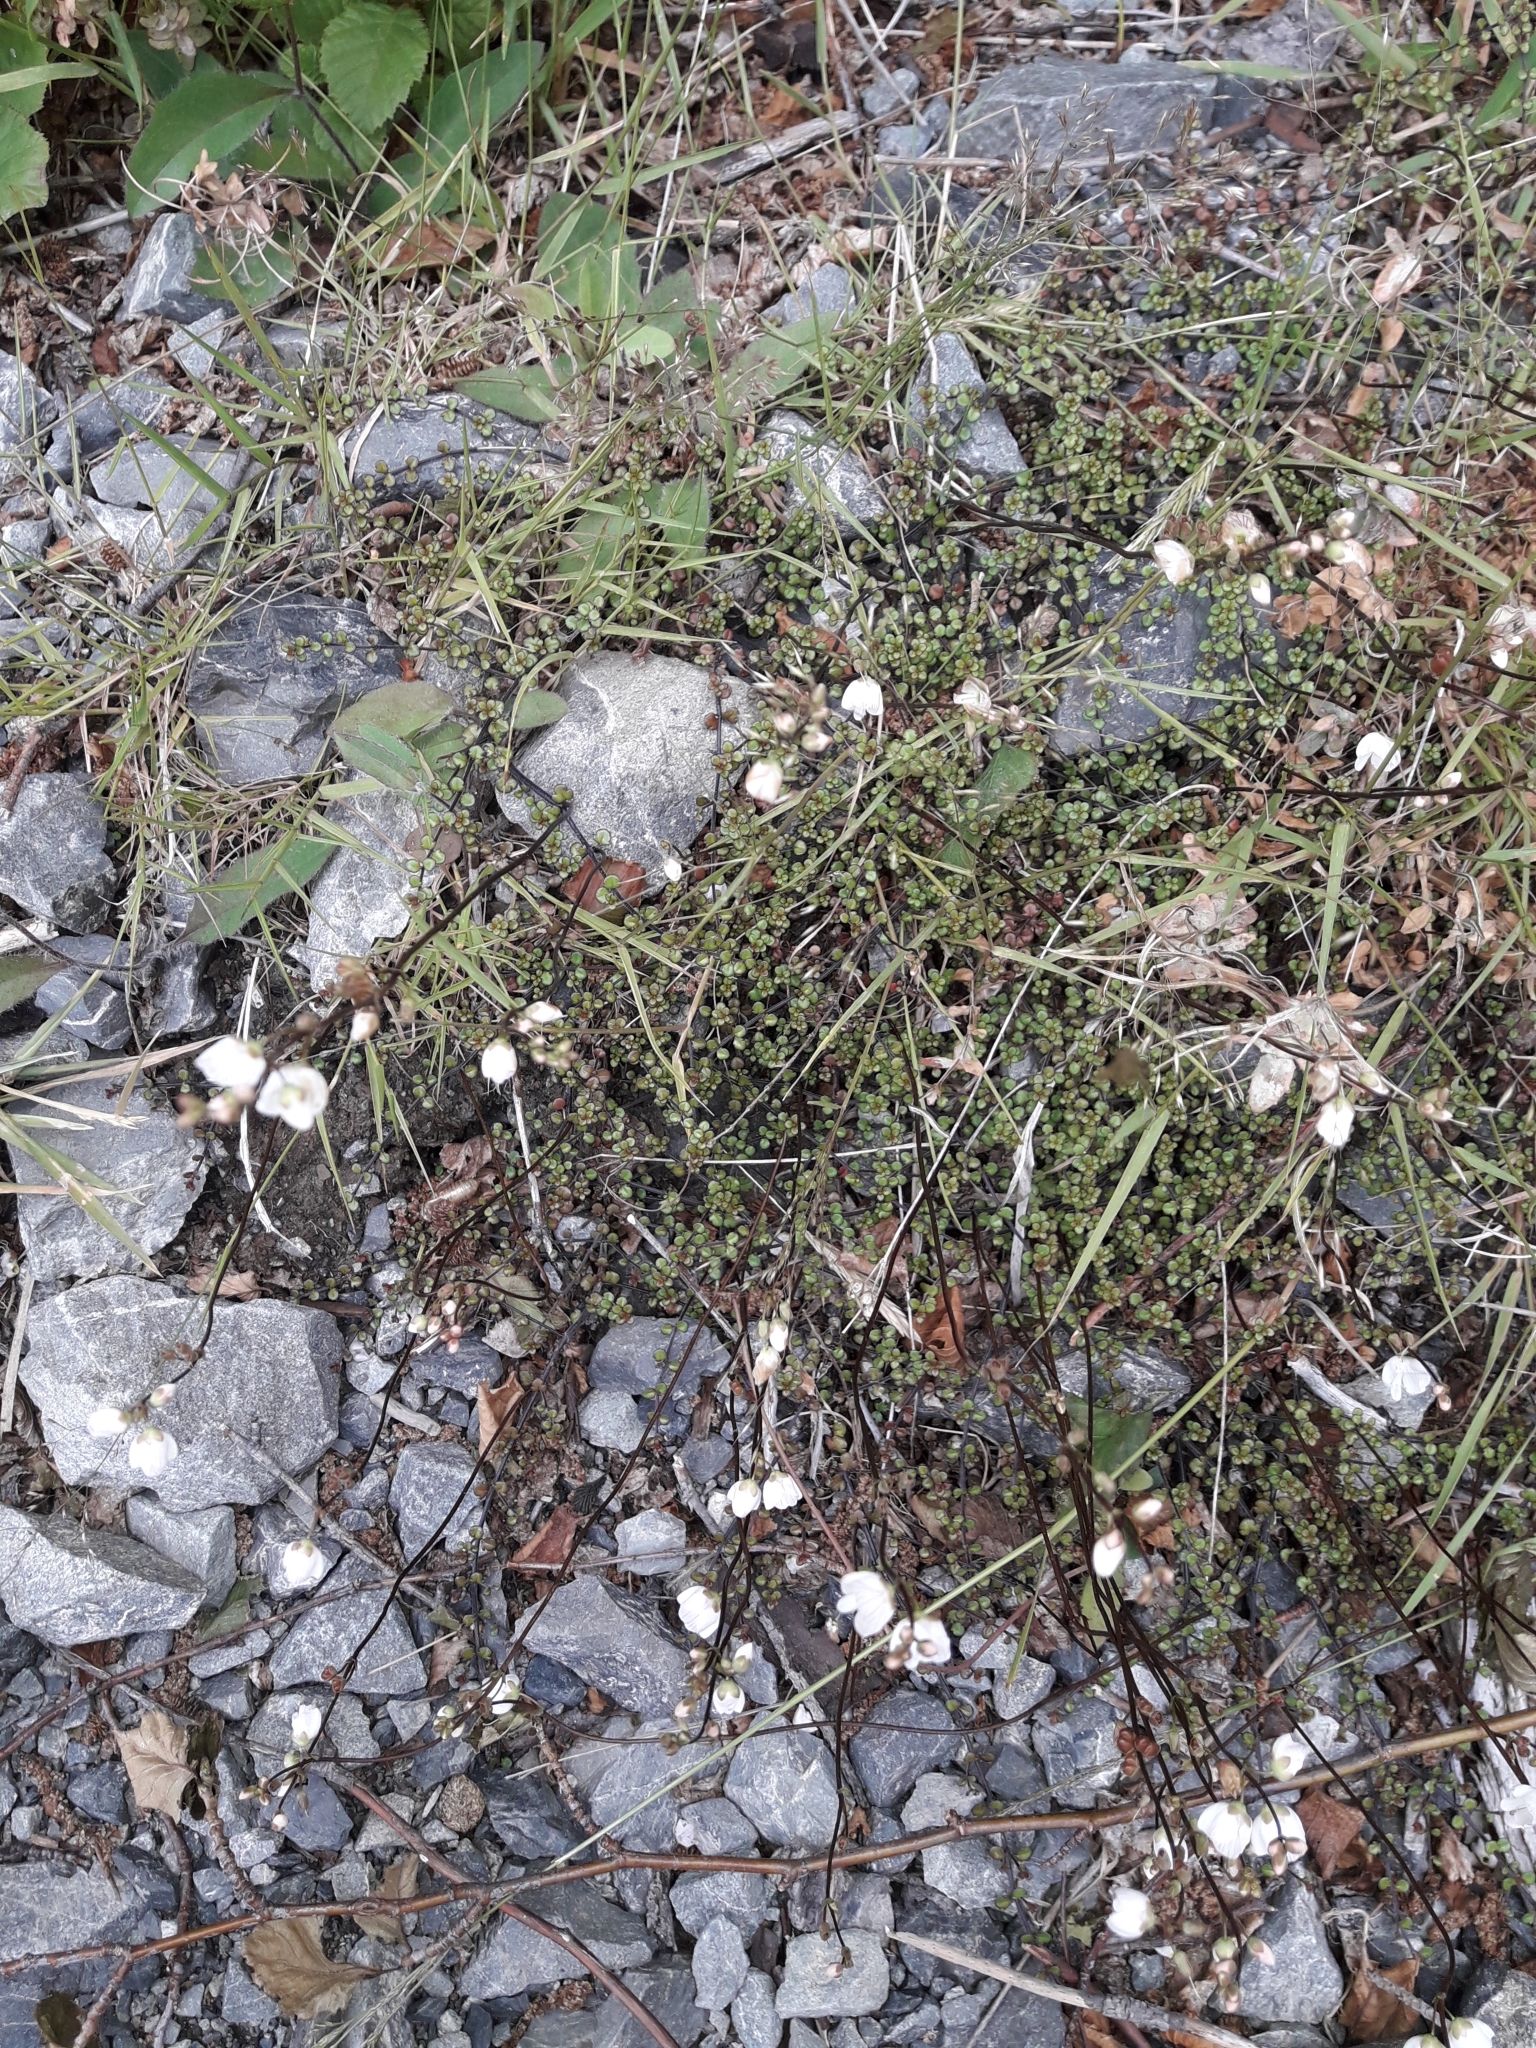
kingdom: Plantae
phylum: Tracheophyta
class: Magnoliopsida
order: Lamiales
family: Plantaginaceae
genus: Veronica
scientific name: Veronica decora
